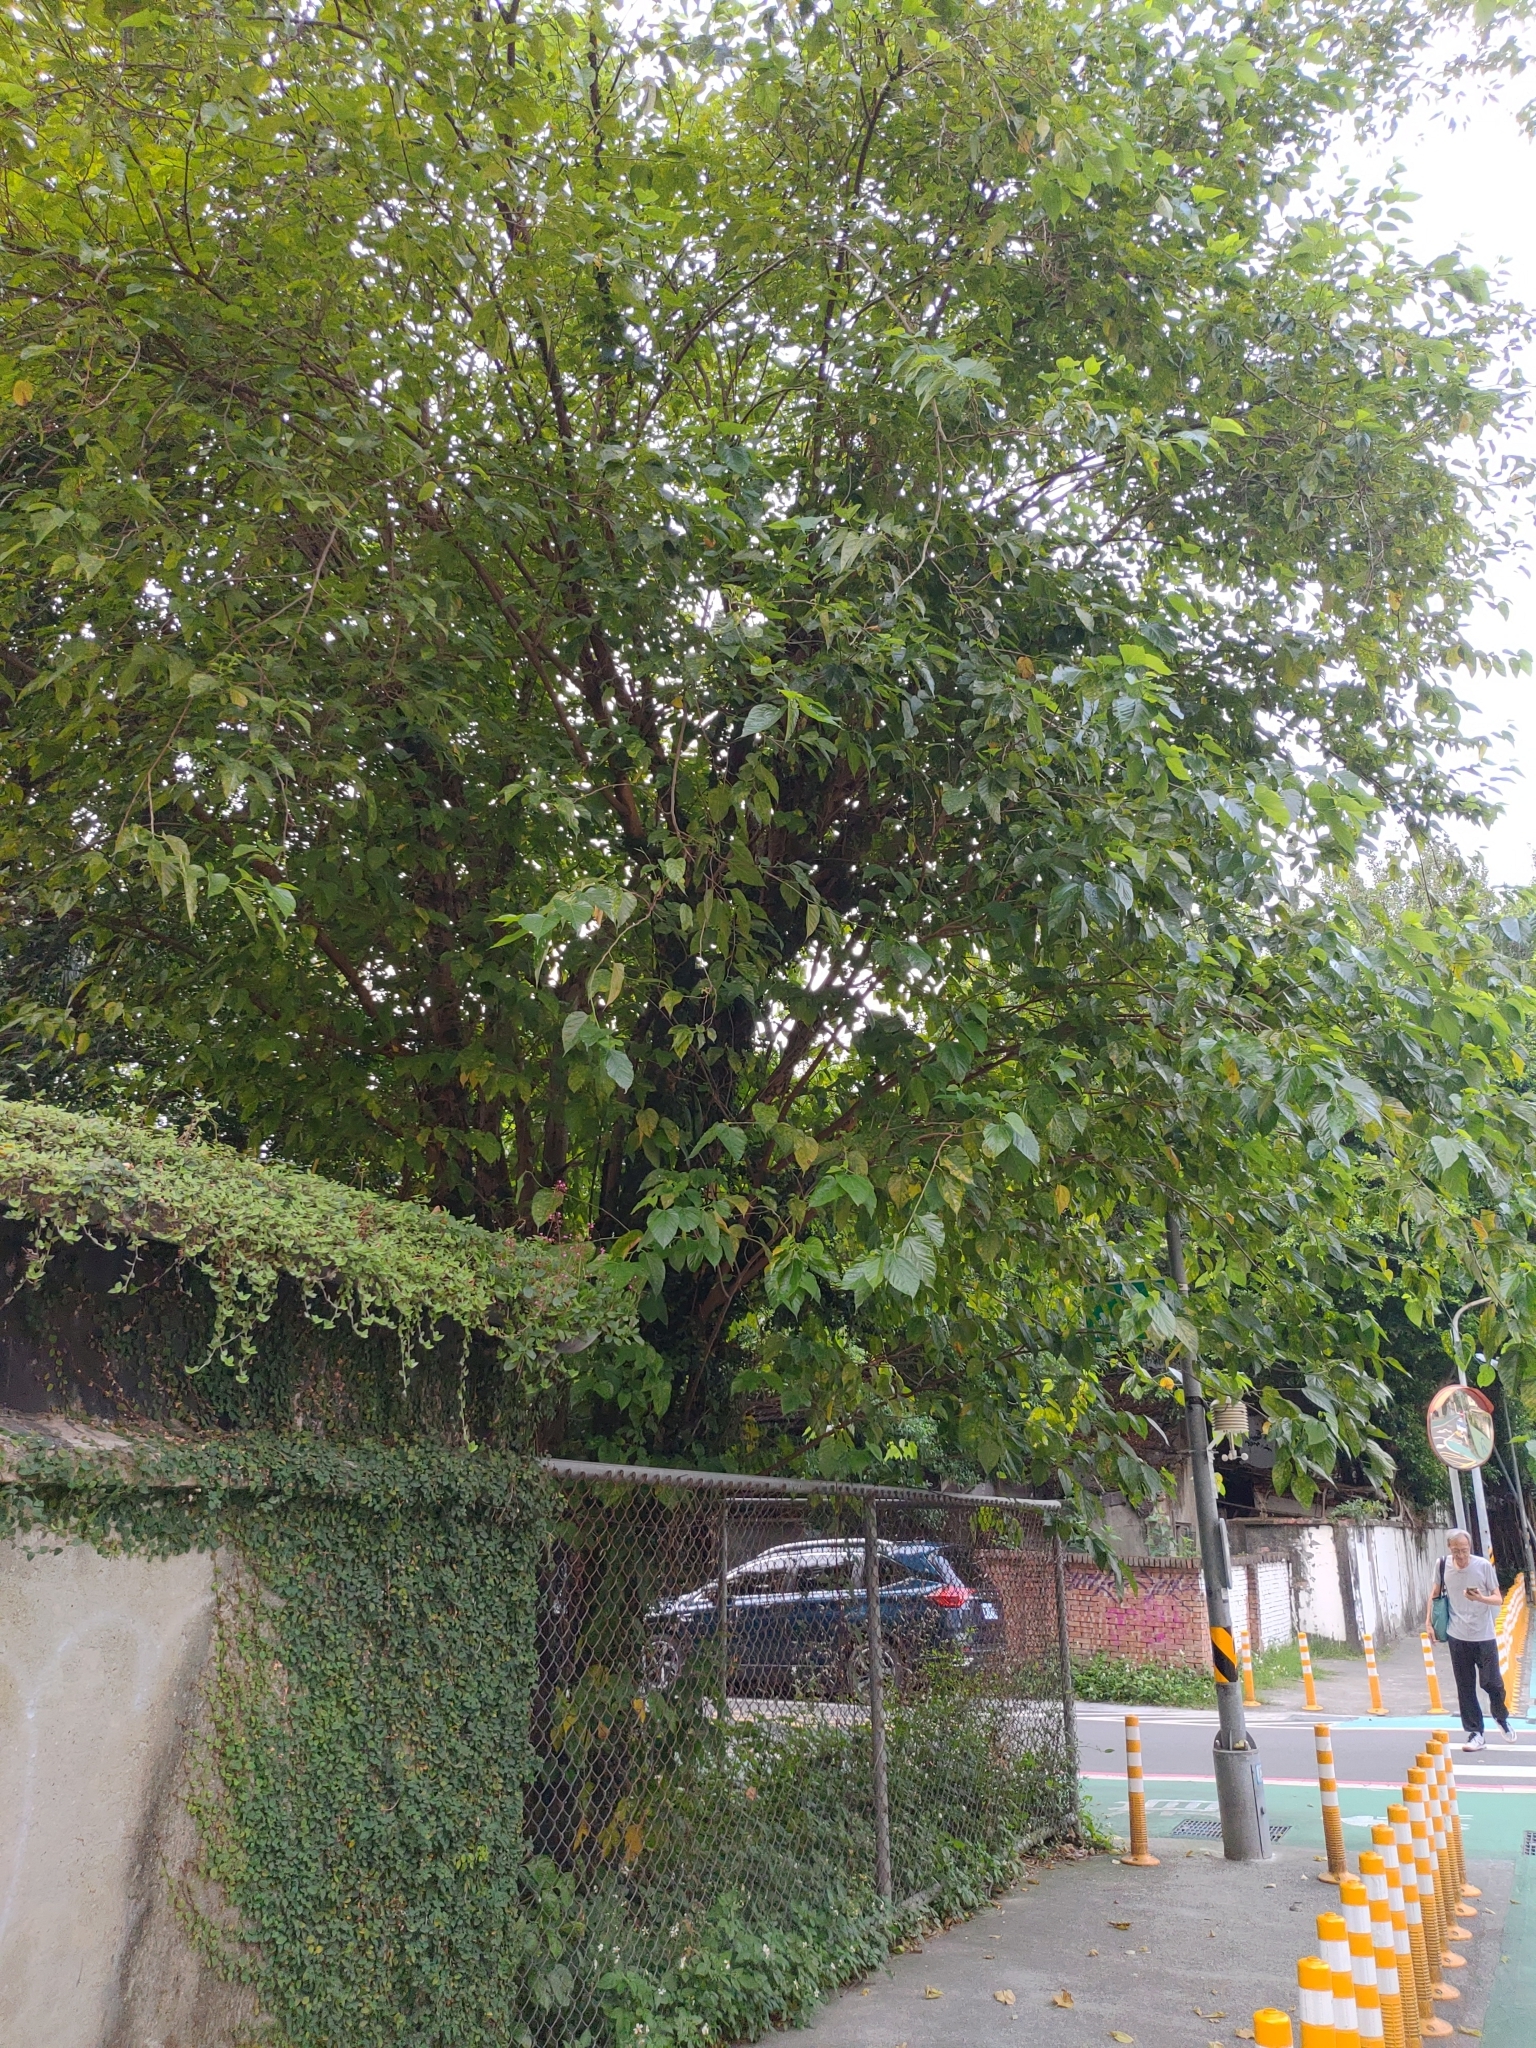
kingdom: Plantae
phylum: Tracheophyta
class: Magnoliopsida
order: Rosales
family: Moraceae
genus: Morus
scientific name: Morus indica
